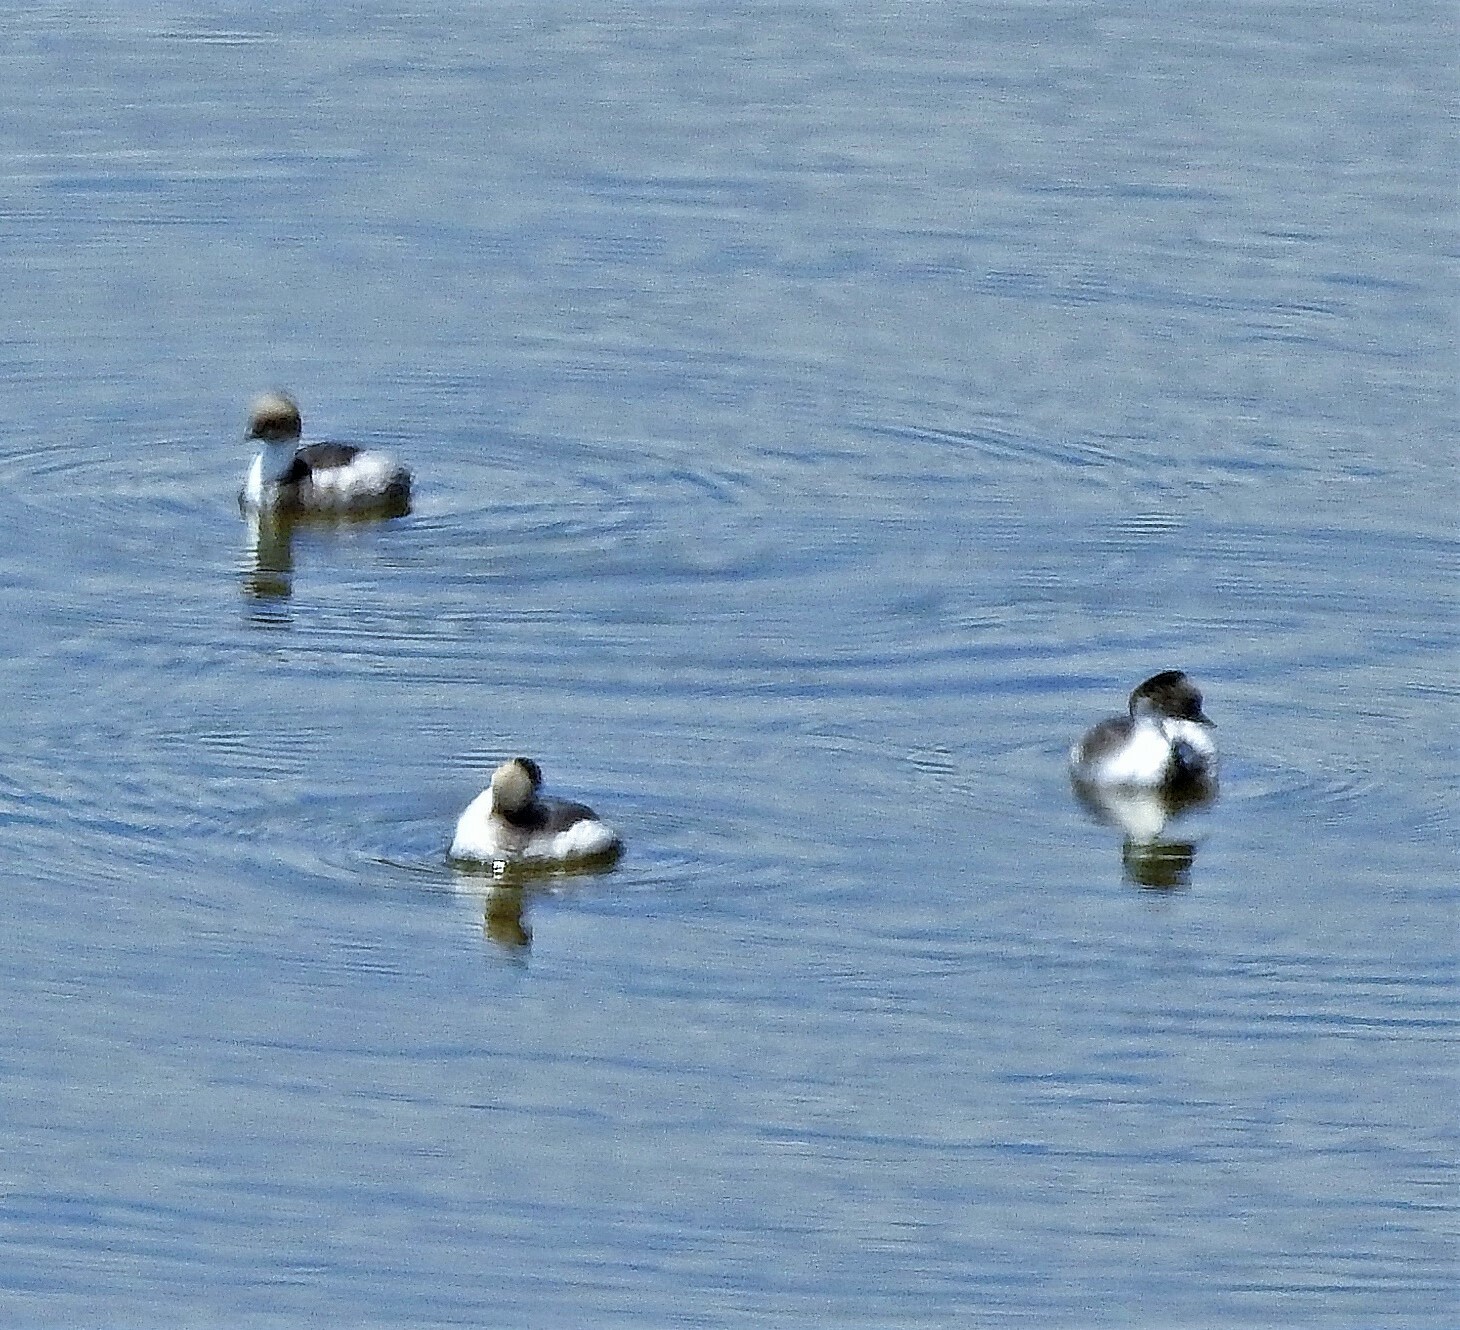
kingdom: Animalia
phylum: Chordata
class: Aves
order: Podicipediformes
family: Podicipedidae
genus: Podiceps
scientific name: Podiceps occipitalis
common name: Silvery grebe
